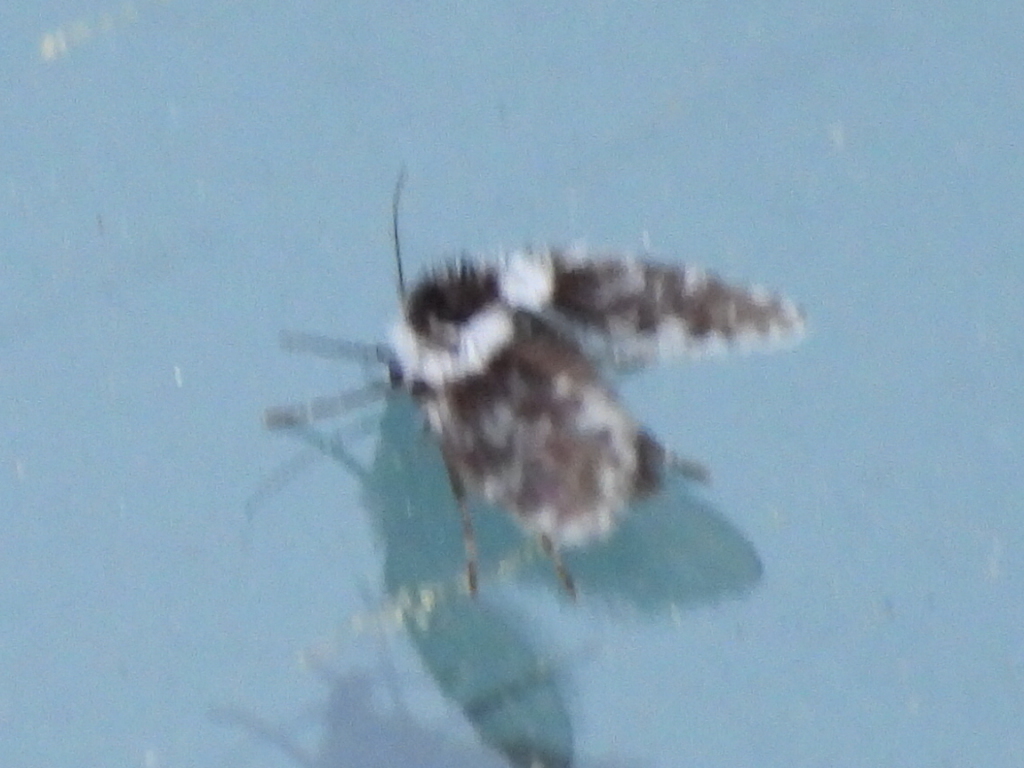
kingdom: Animalia
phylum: Arthropoda
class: Insecta
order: Diptera
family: Psychodidae
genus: Lepiseodina
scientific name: Lepiseodina
